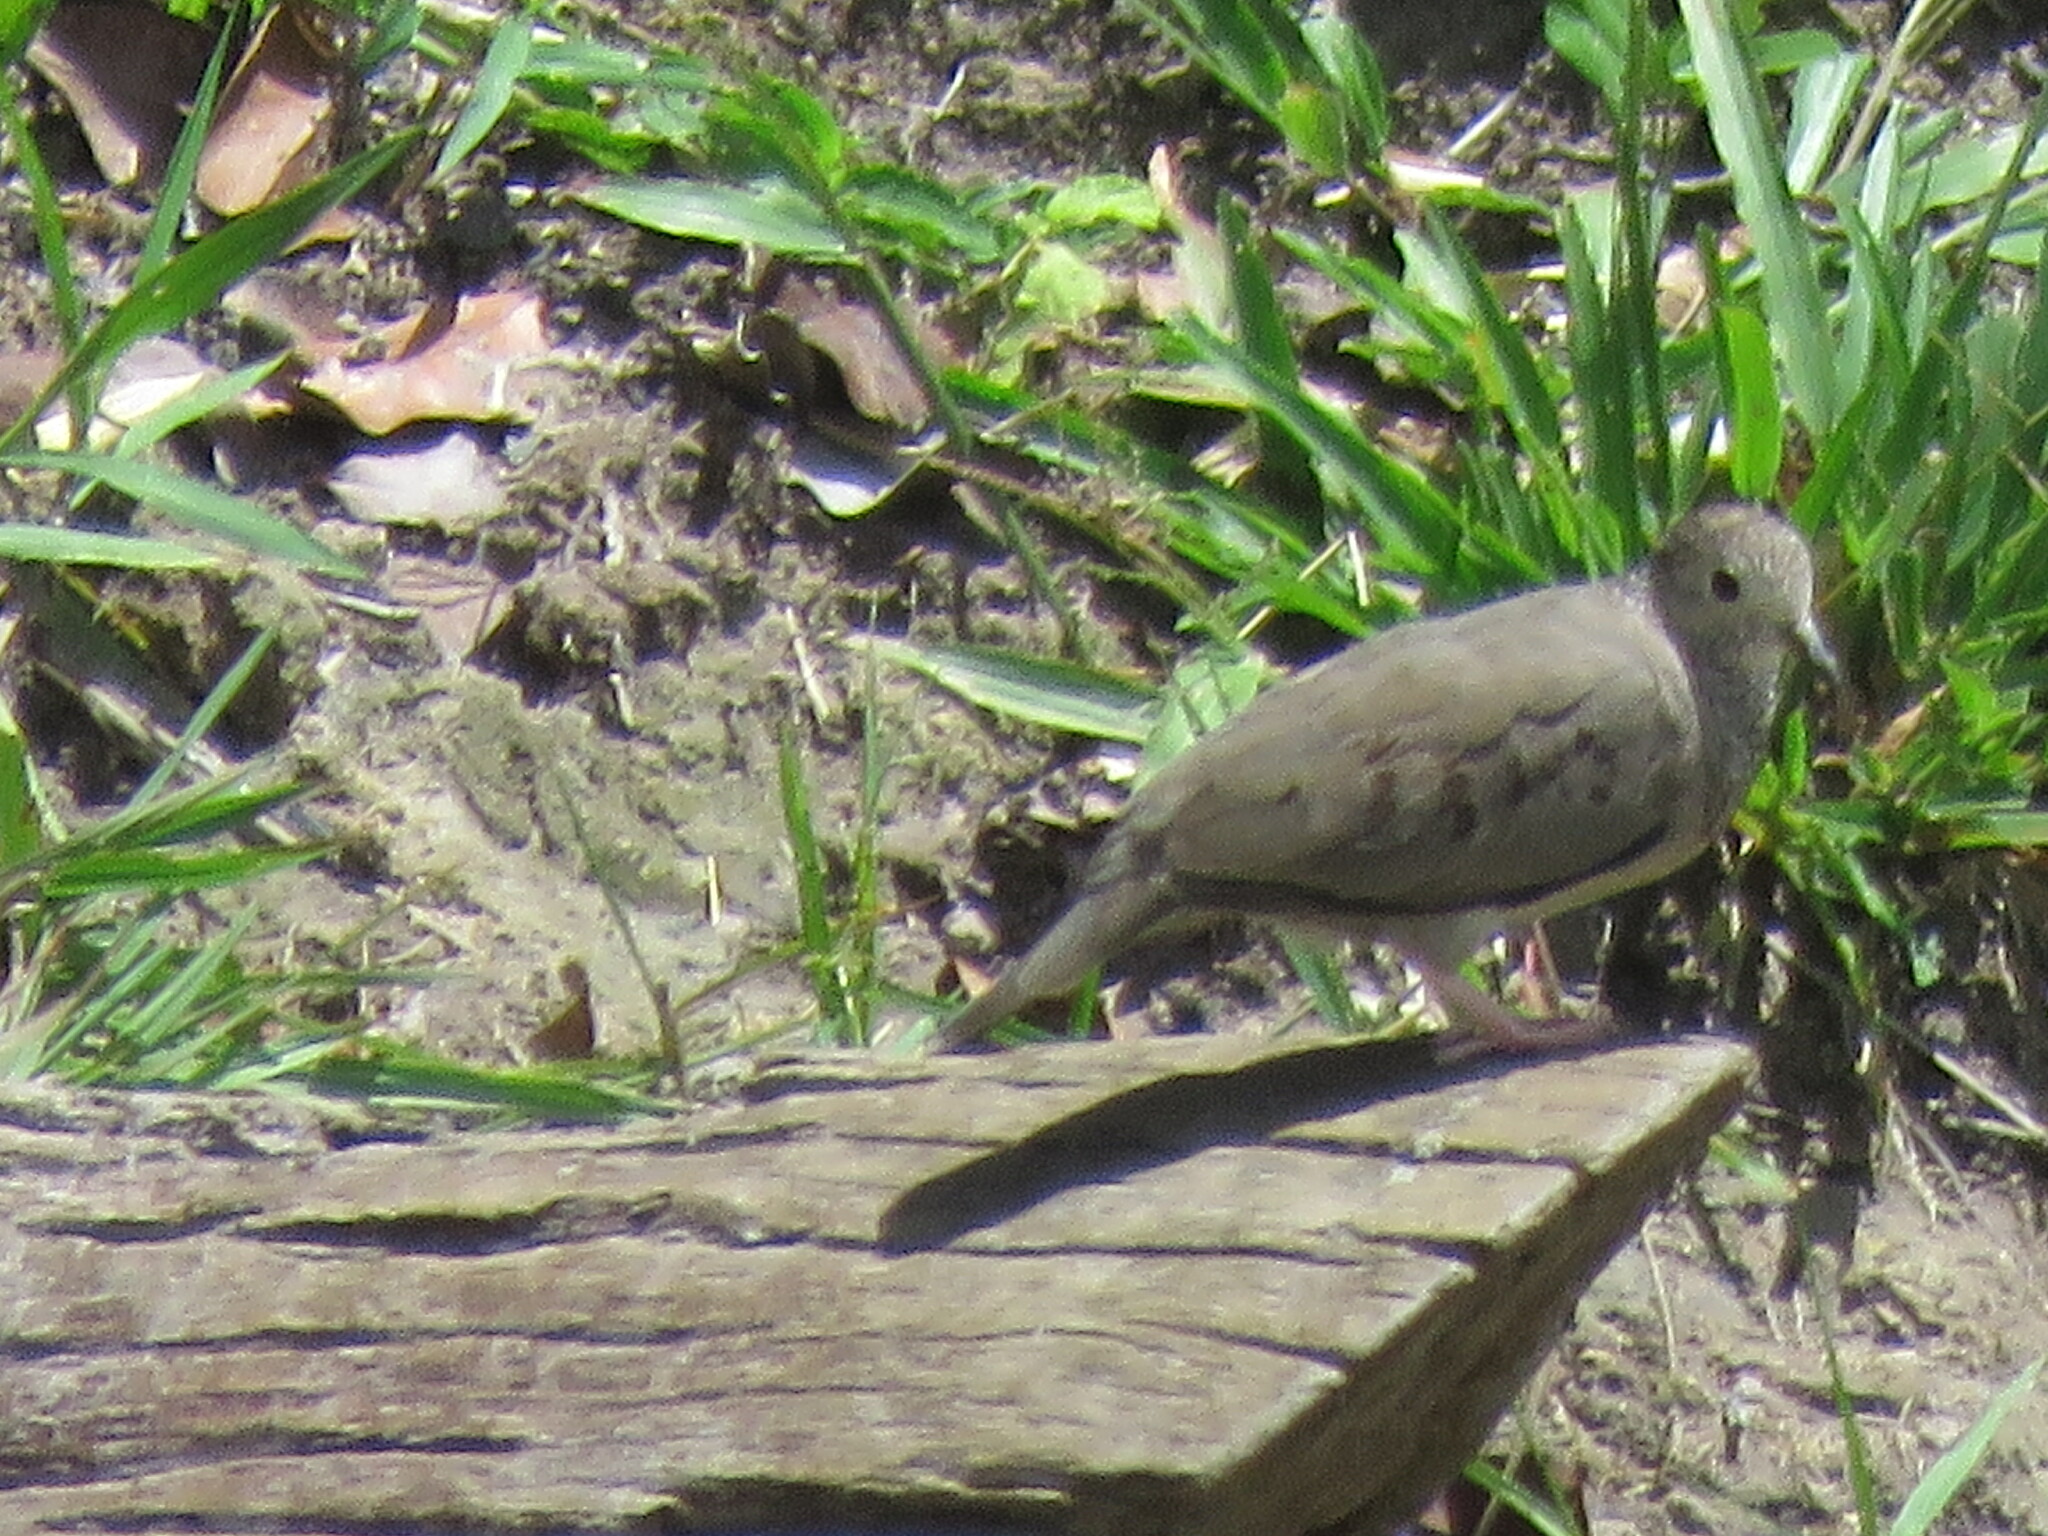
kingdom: Animalia
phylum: Chordata
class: Aves
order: Columbiformes
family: Columbidae
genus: Columbina
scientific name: Columbina passerina
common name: Common ground-dove
